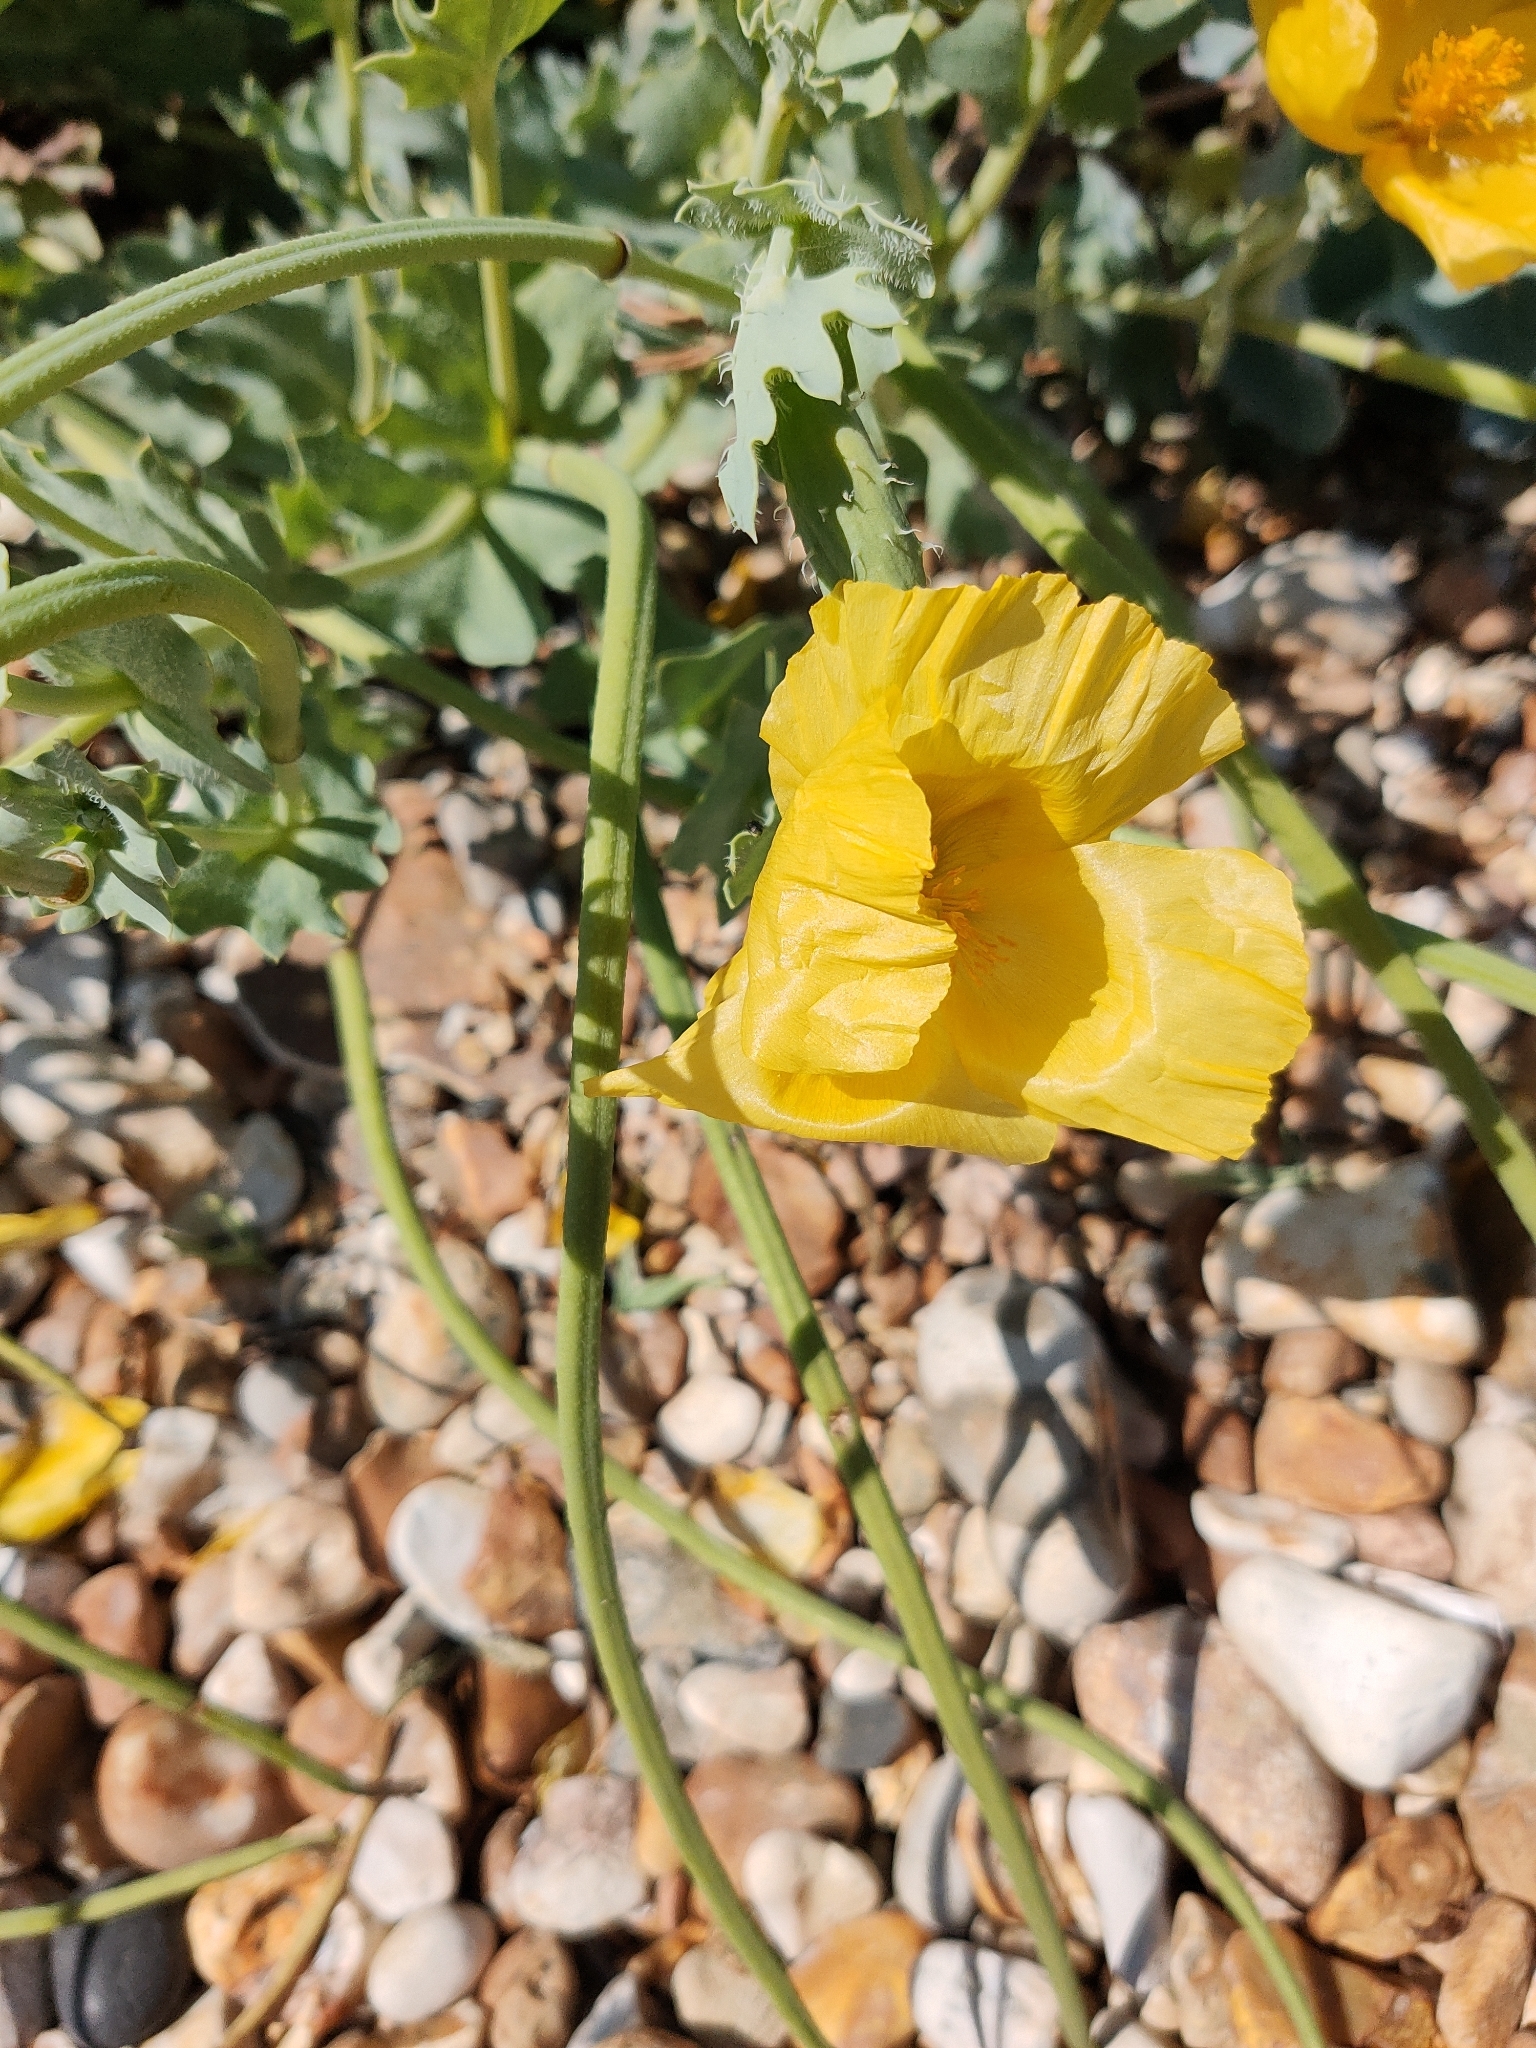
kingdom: Plantae
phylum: Tracheophyta
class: Magnoliopsida
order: Ranunculales
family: Papaveraceae
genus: Glaucium
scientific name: Glaucium flavum
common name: Yellow horned-poppy
